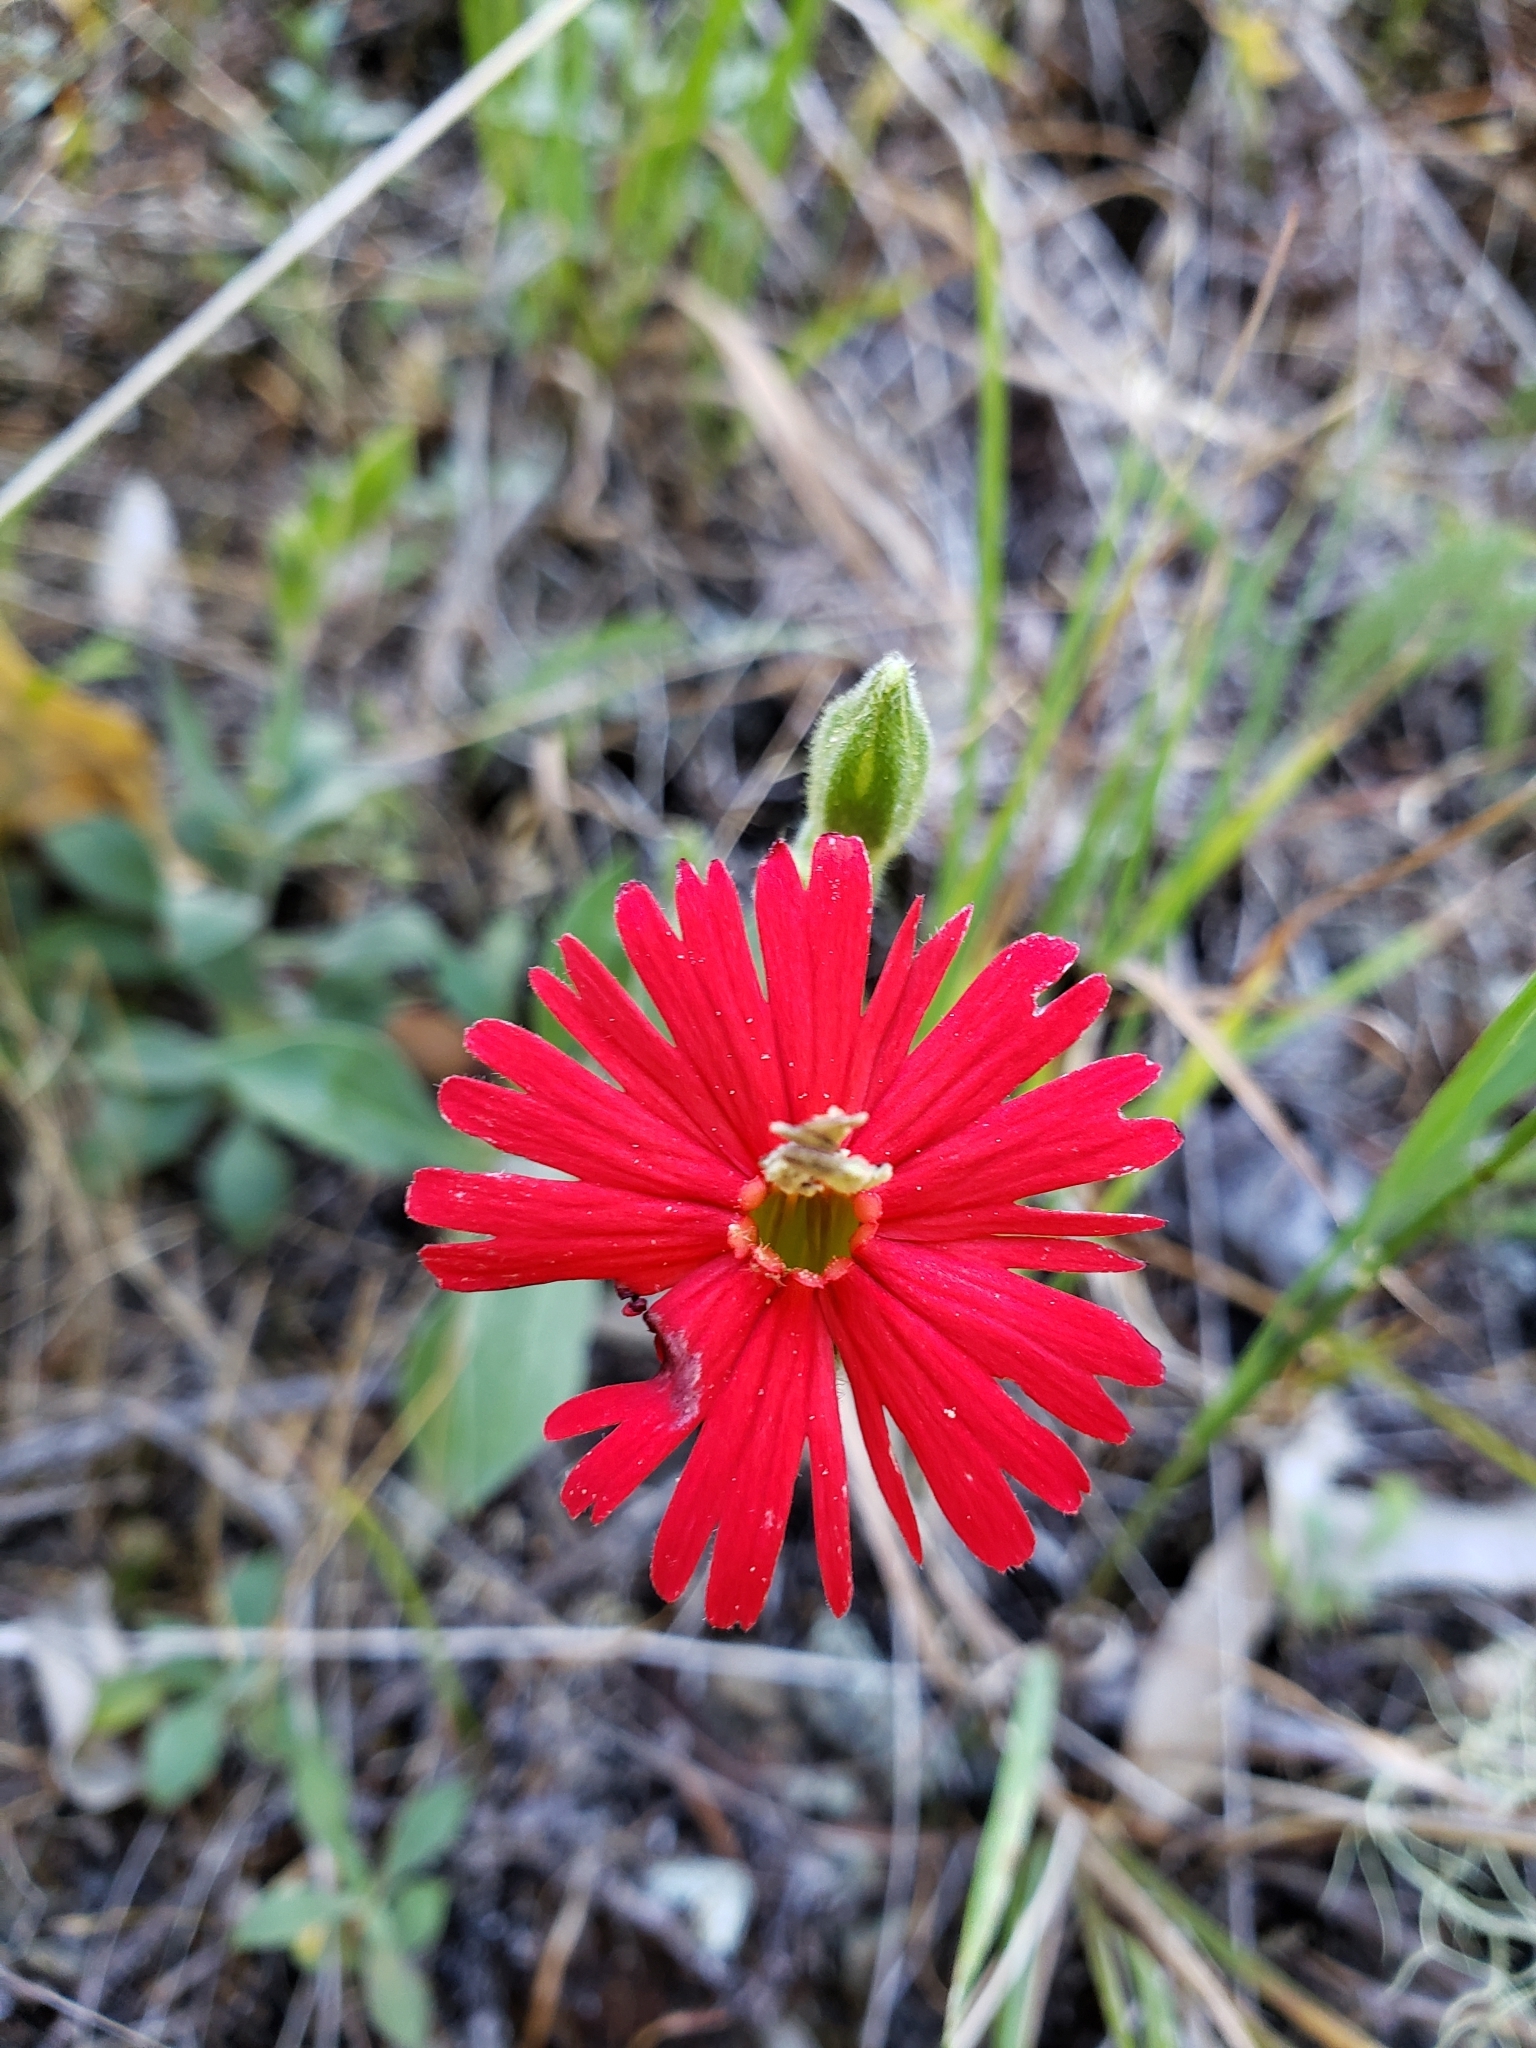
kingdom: Plantae
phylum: Tracheophyta
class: Magnoliopsida
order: Caryophyllales
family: Caryophyllaceae
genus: Silene
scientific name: Silene laciniata
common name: Indian-pink
